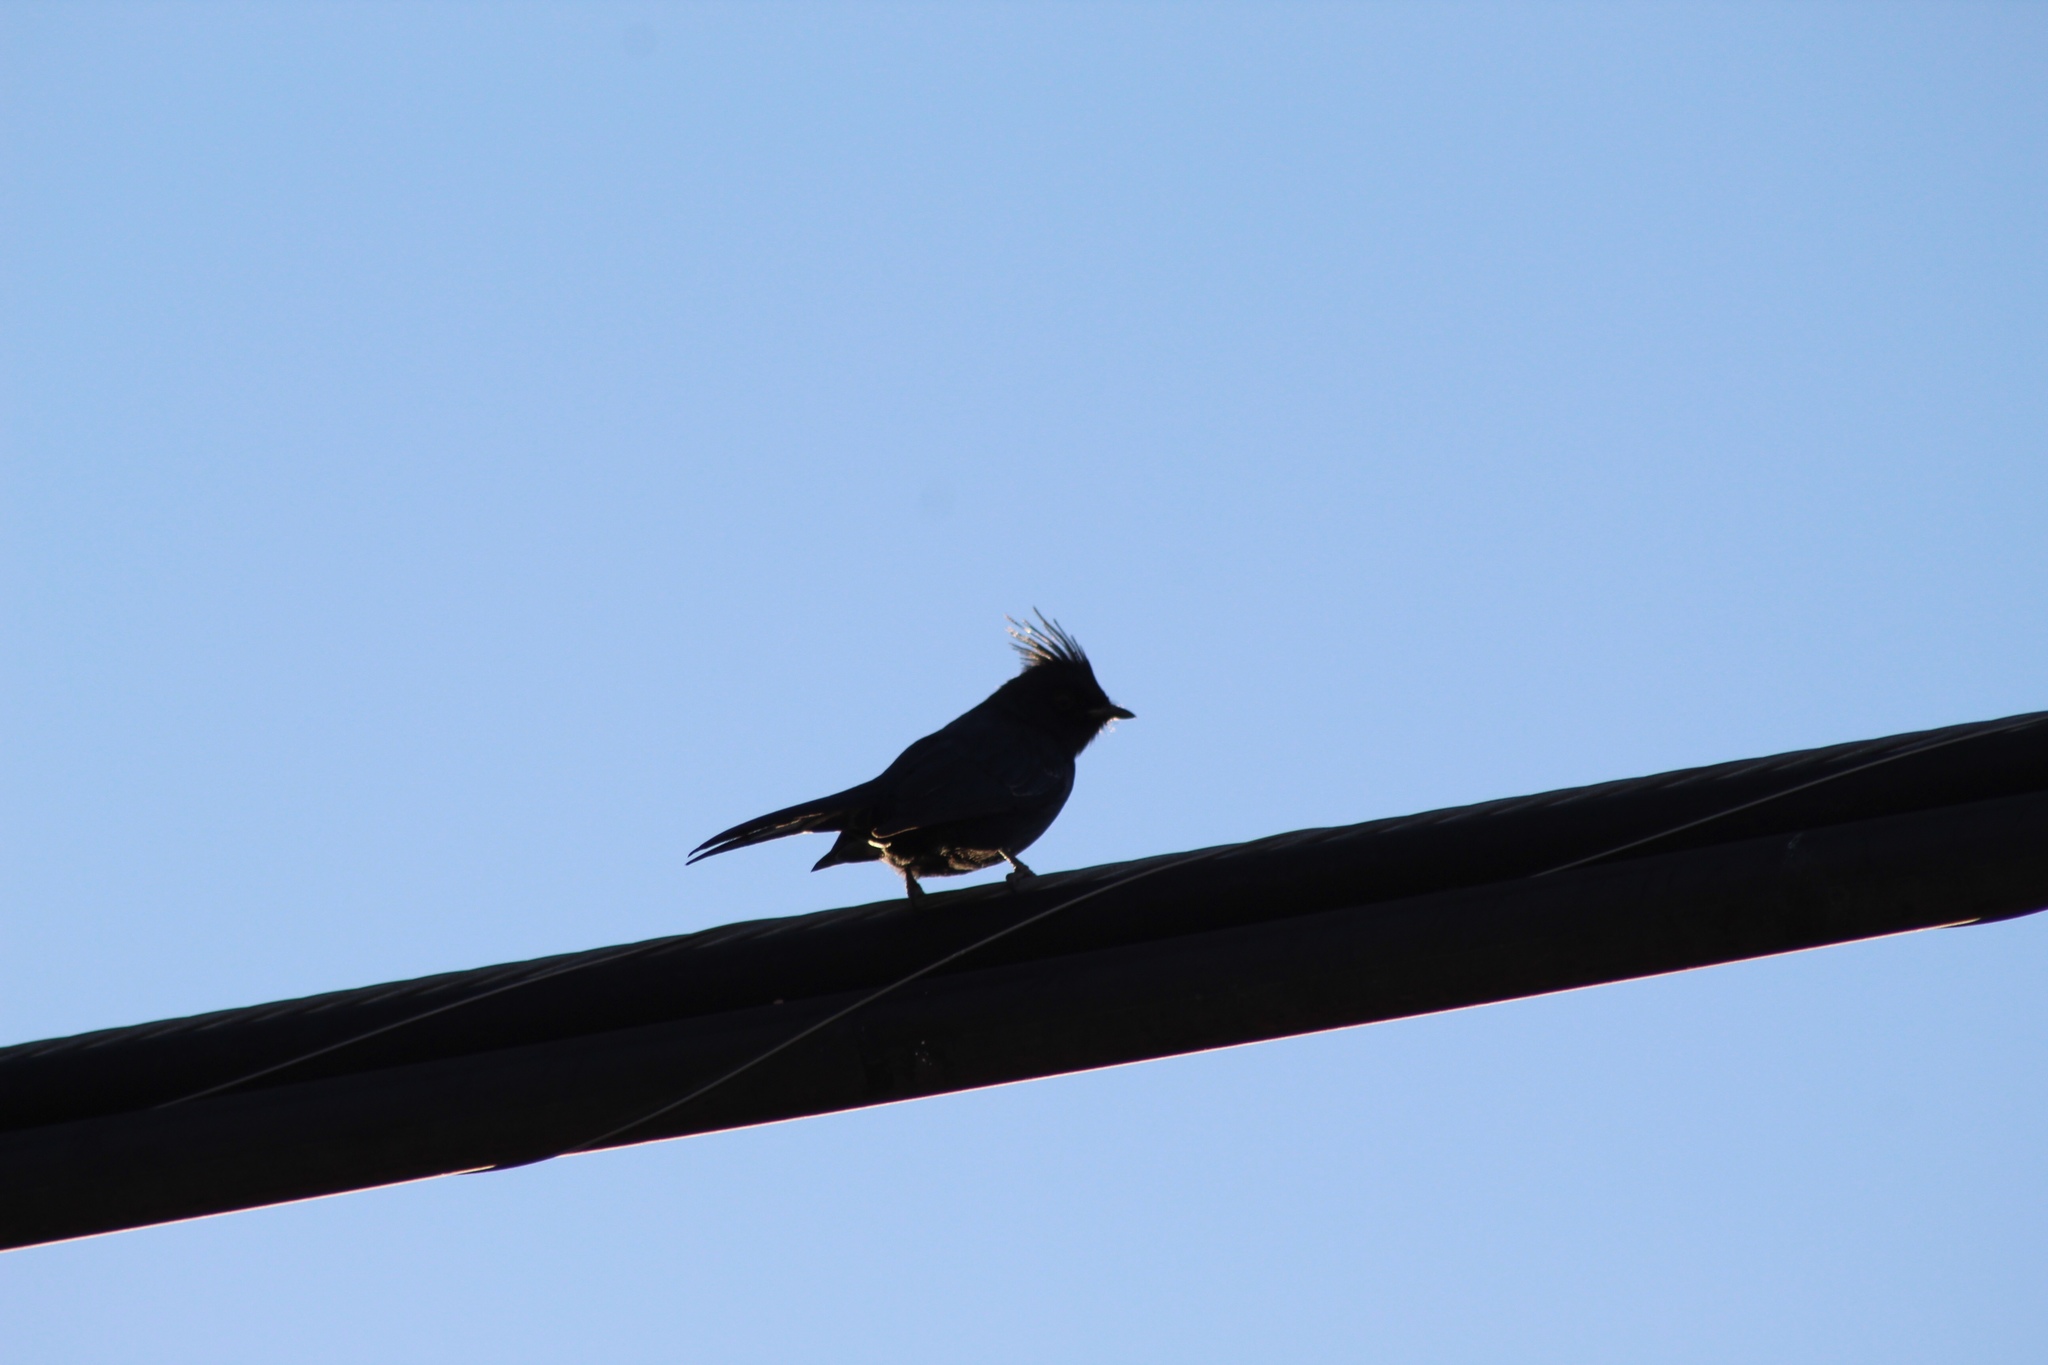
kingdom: Animalia
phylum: Chordata
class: Aves
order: Passeriformes
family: Ptilogonatidae
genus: Phainopepla
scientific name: Phainopepla nitens
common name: Phainopepla
